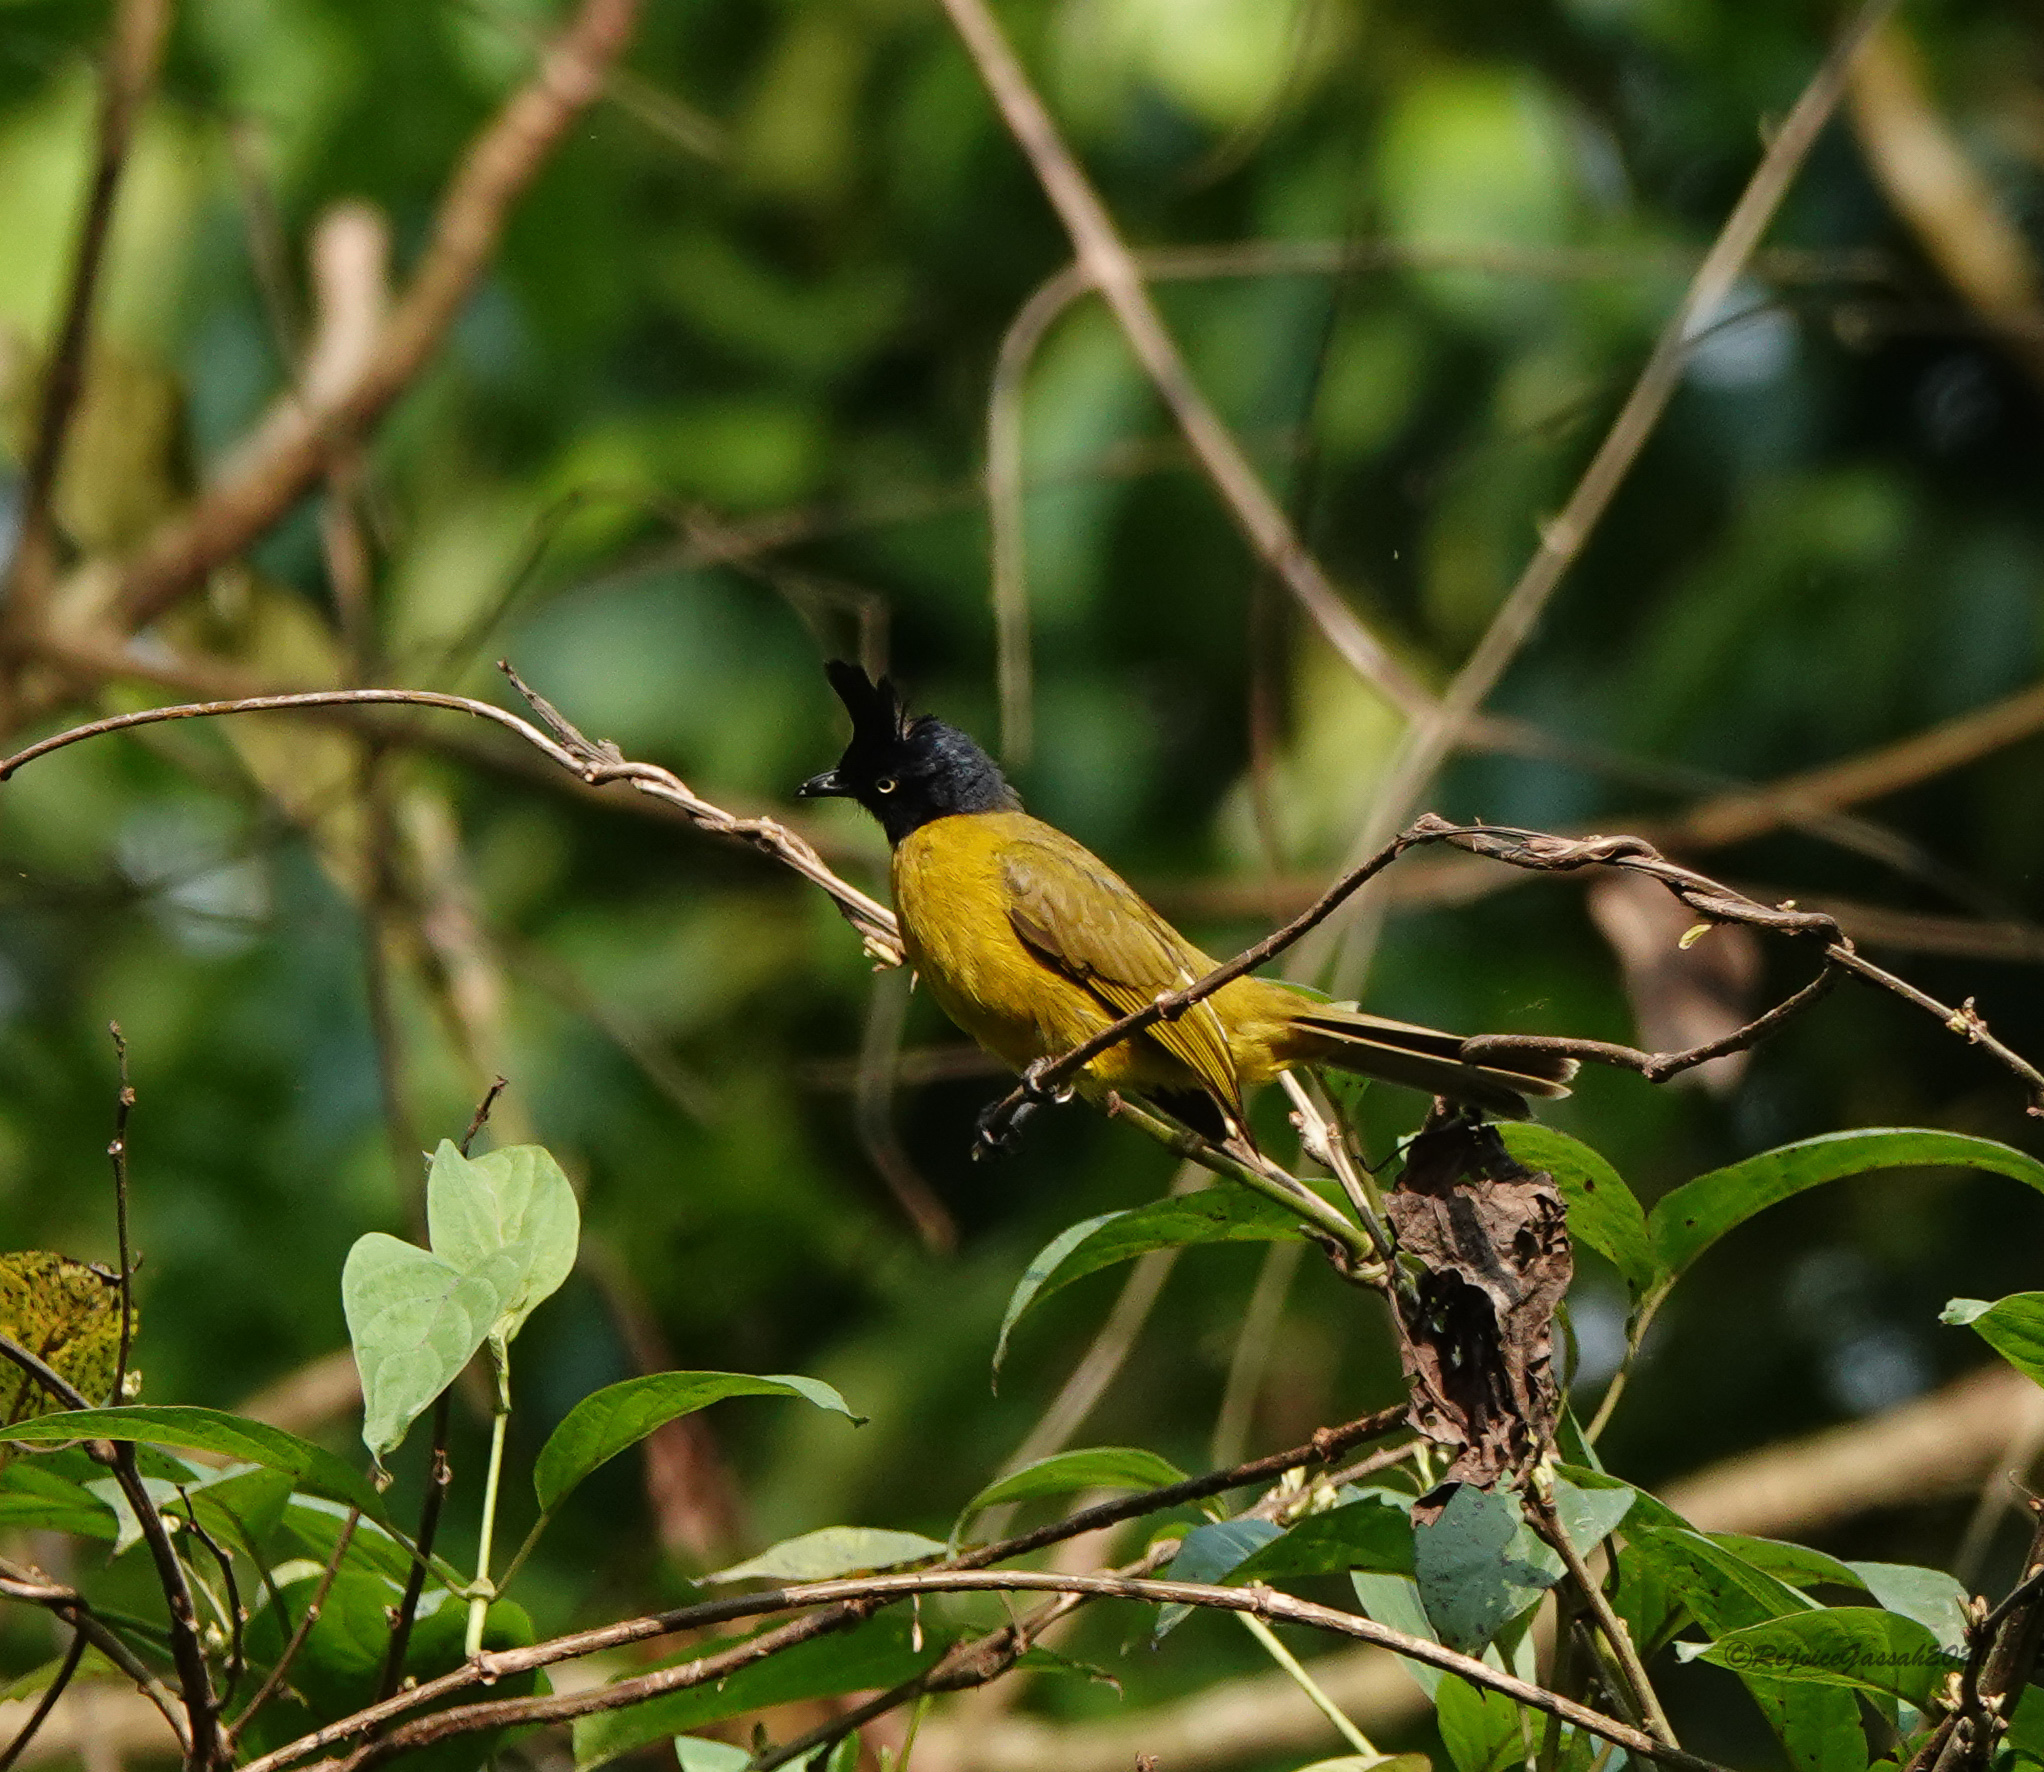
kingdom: Animalia
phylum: Chordata
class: Aves
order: Passeriformes
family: Pycnonotidae
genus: Pycnonotus
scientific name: Pycnonotus flaviventris
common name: Black-crested bulbul
